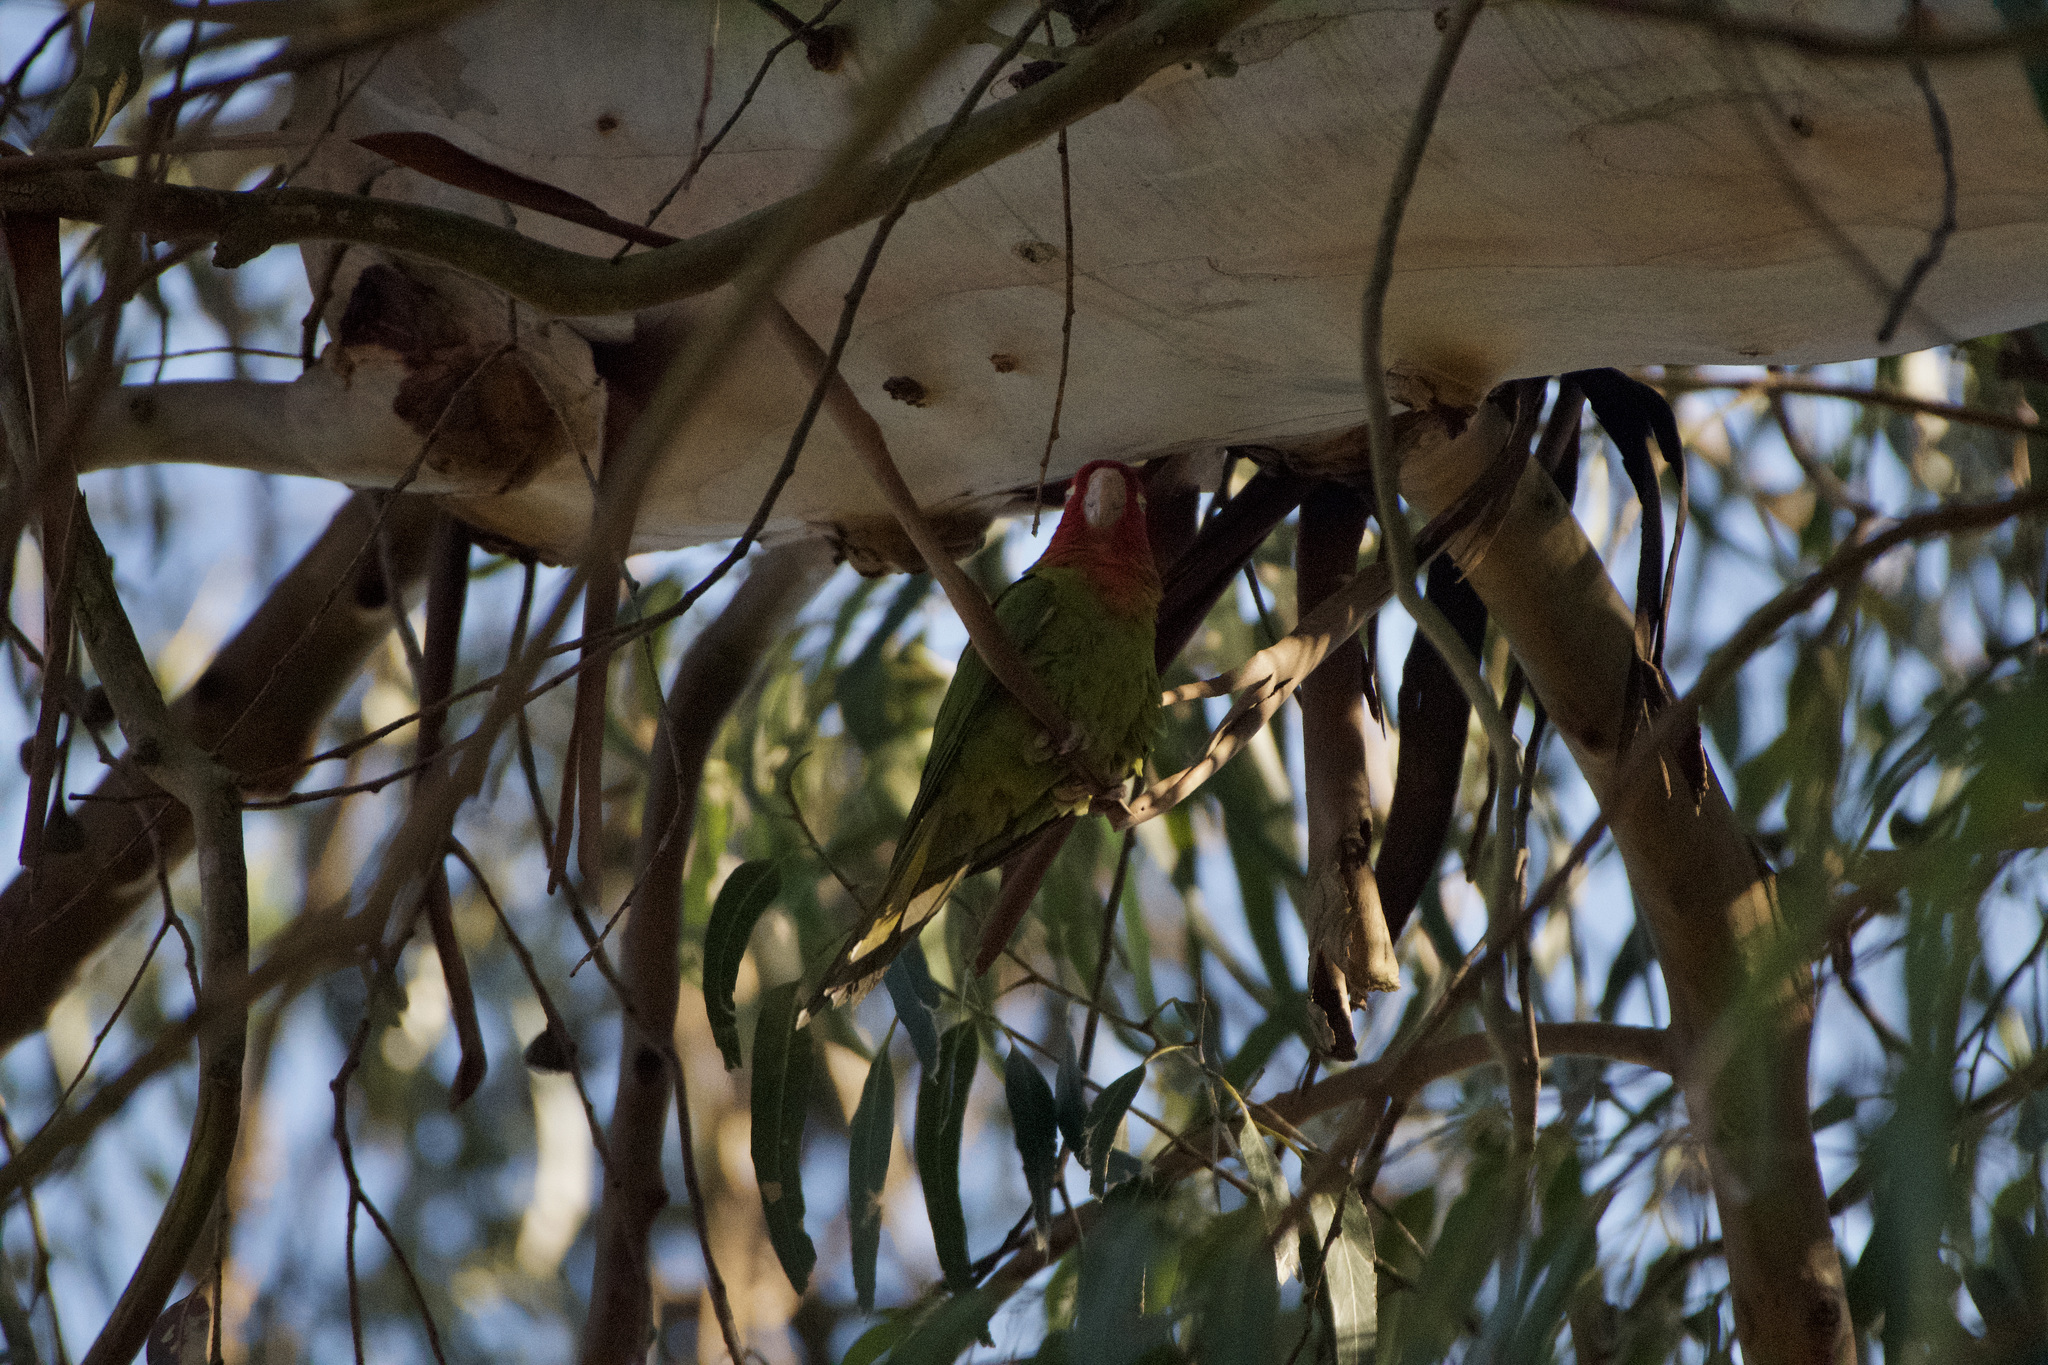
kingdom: Animalia
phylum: Chordata
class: Aves
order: Psittaciformes
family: Psittacidae
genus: Aratinga
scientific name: Aratinga erythrogenys
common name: Red-masked parakeet
